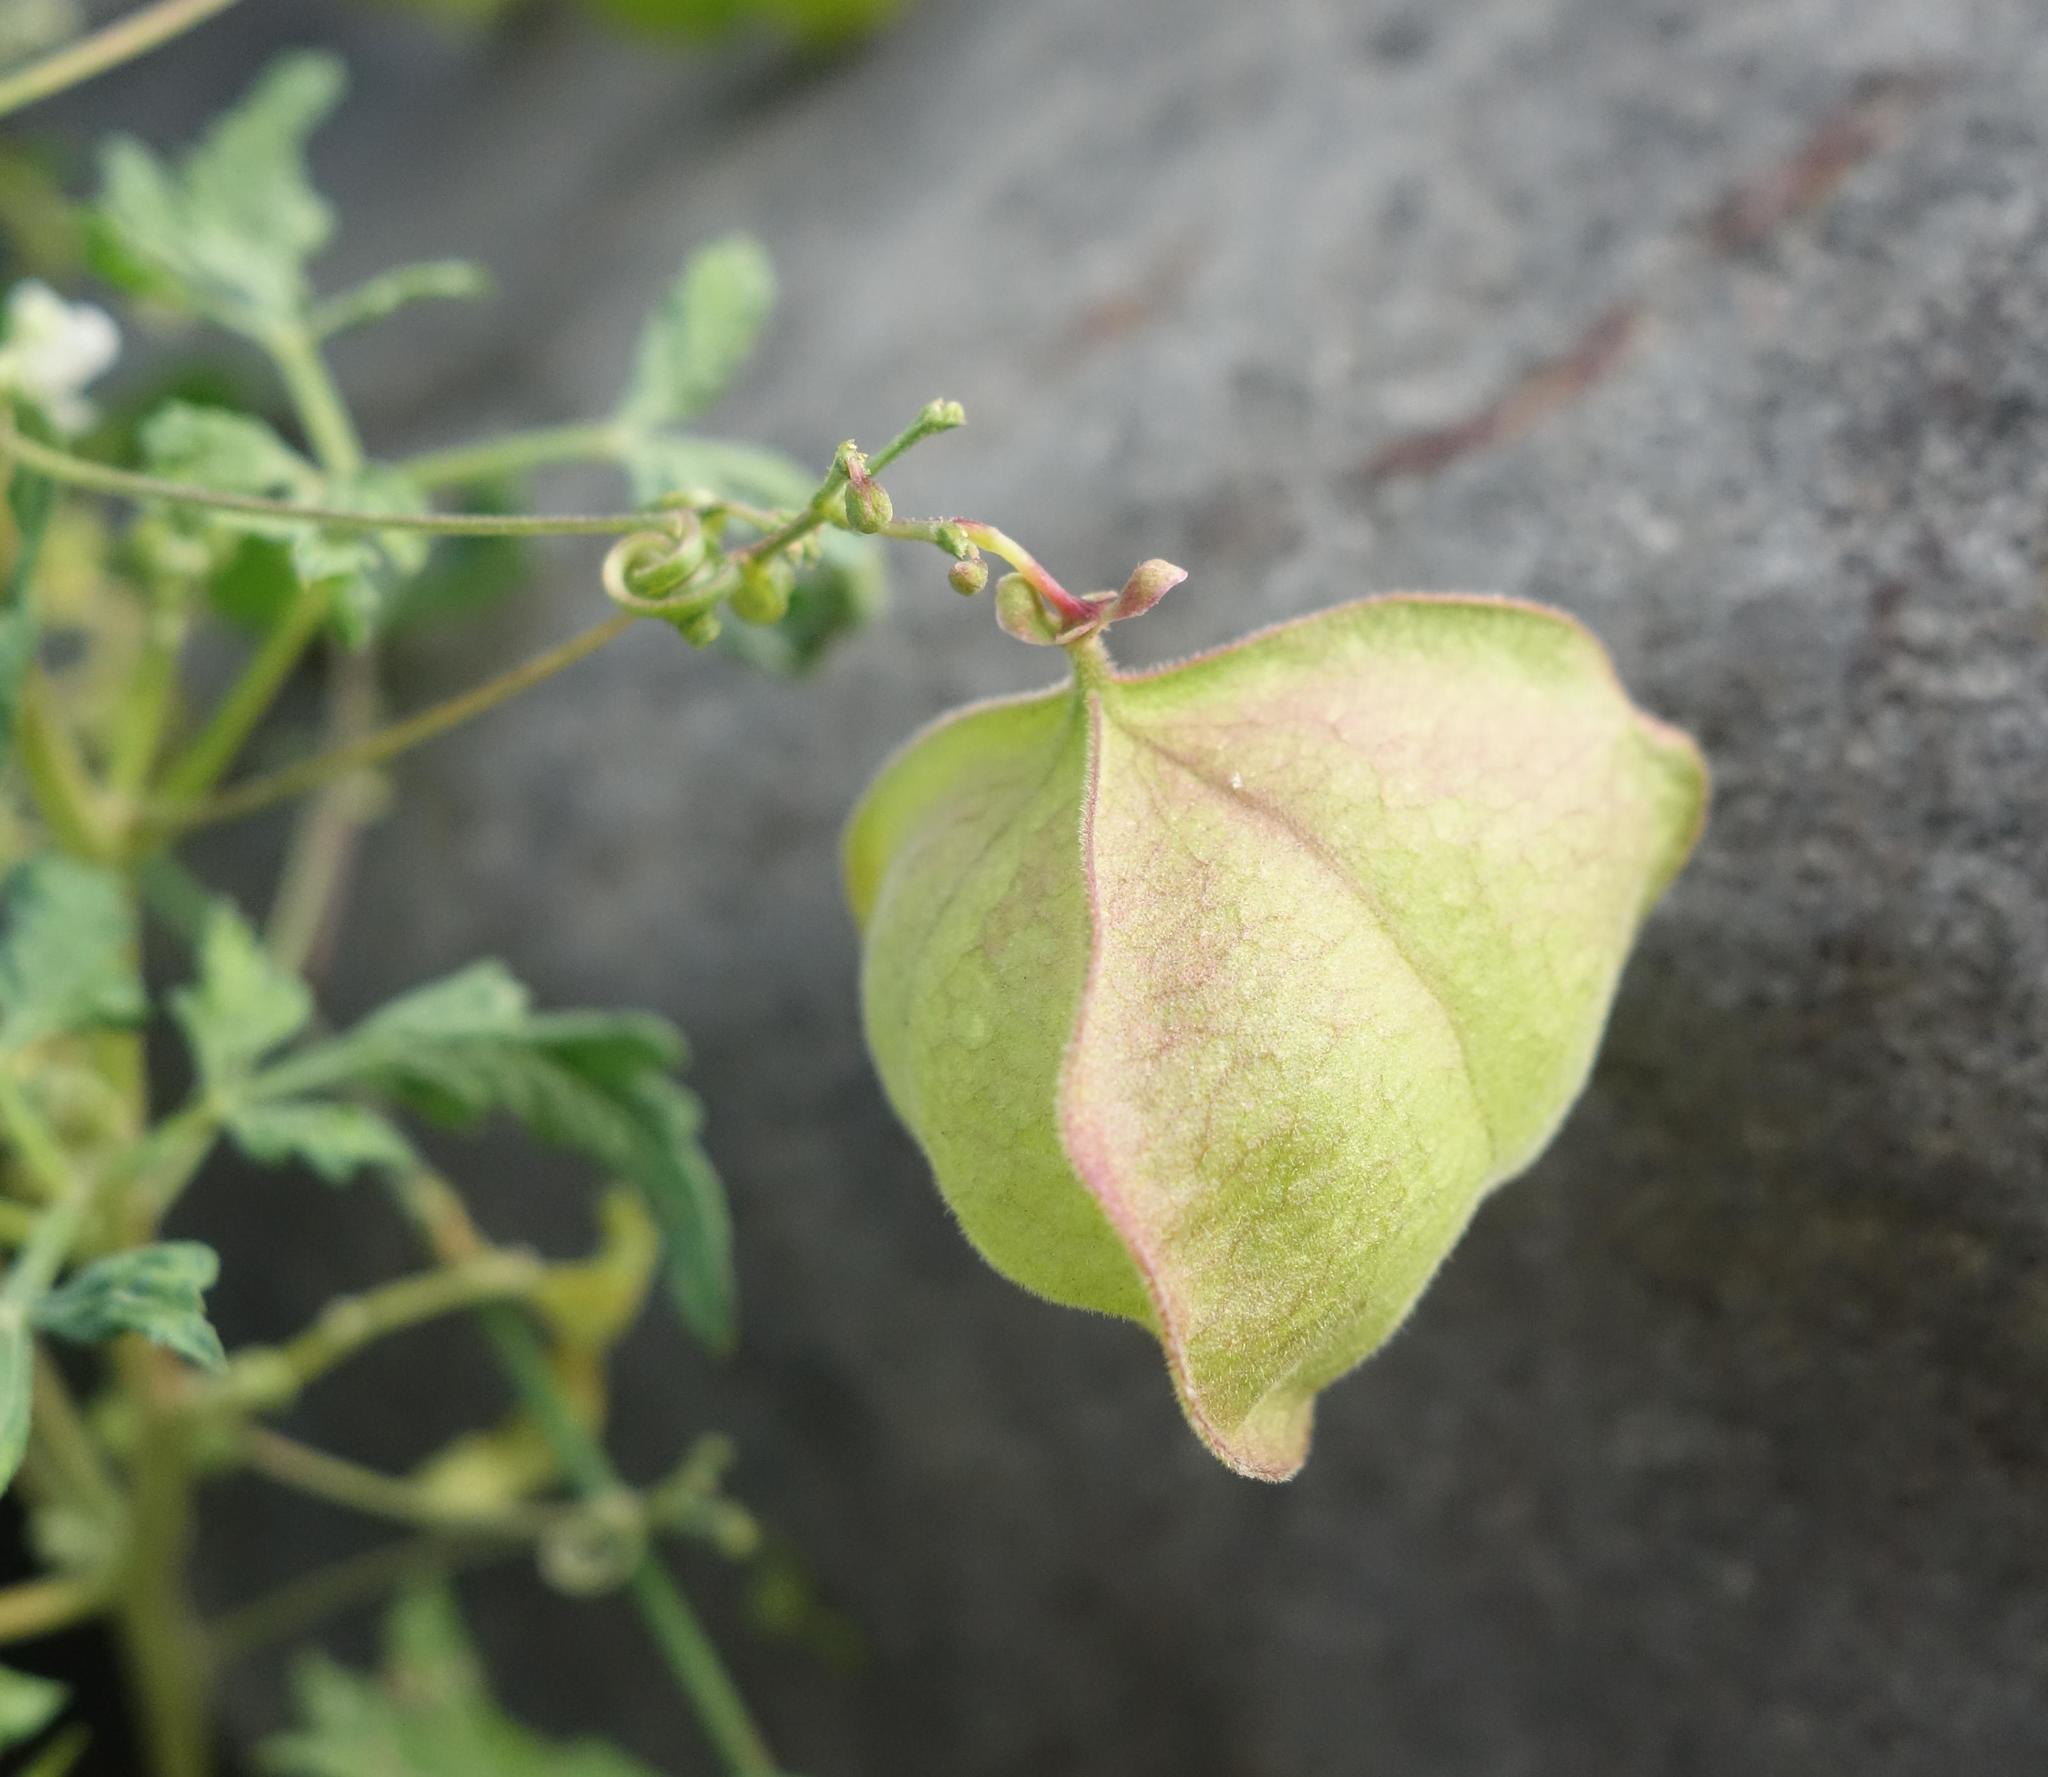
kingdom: Plantae
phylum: Tracheophyta
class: Magnoliopsida
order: Sapindales
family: Sapindaceae
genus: Cardiospermum
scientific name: Cardiospermum halicacabum
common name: Balloon vine
